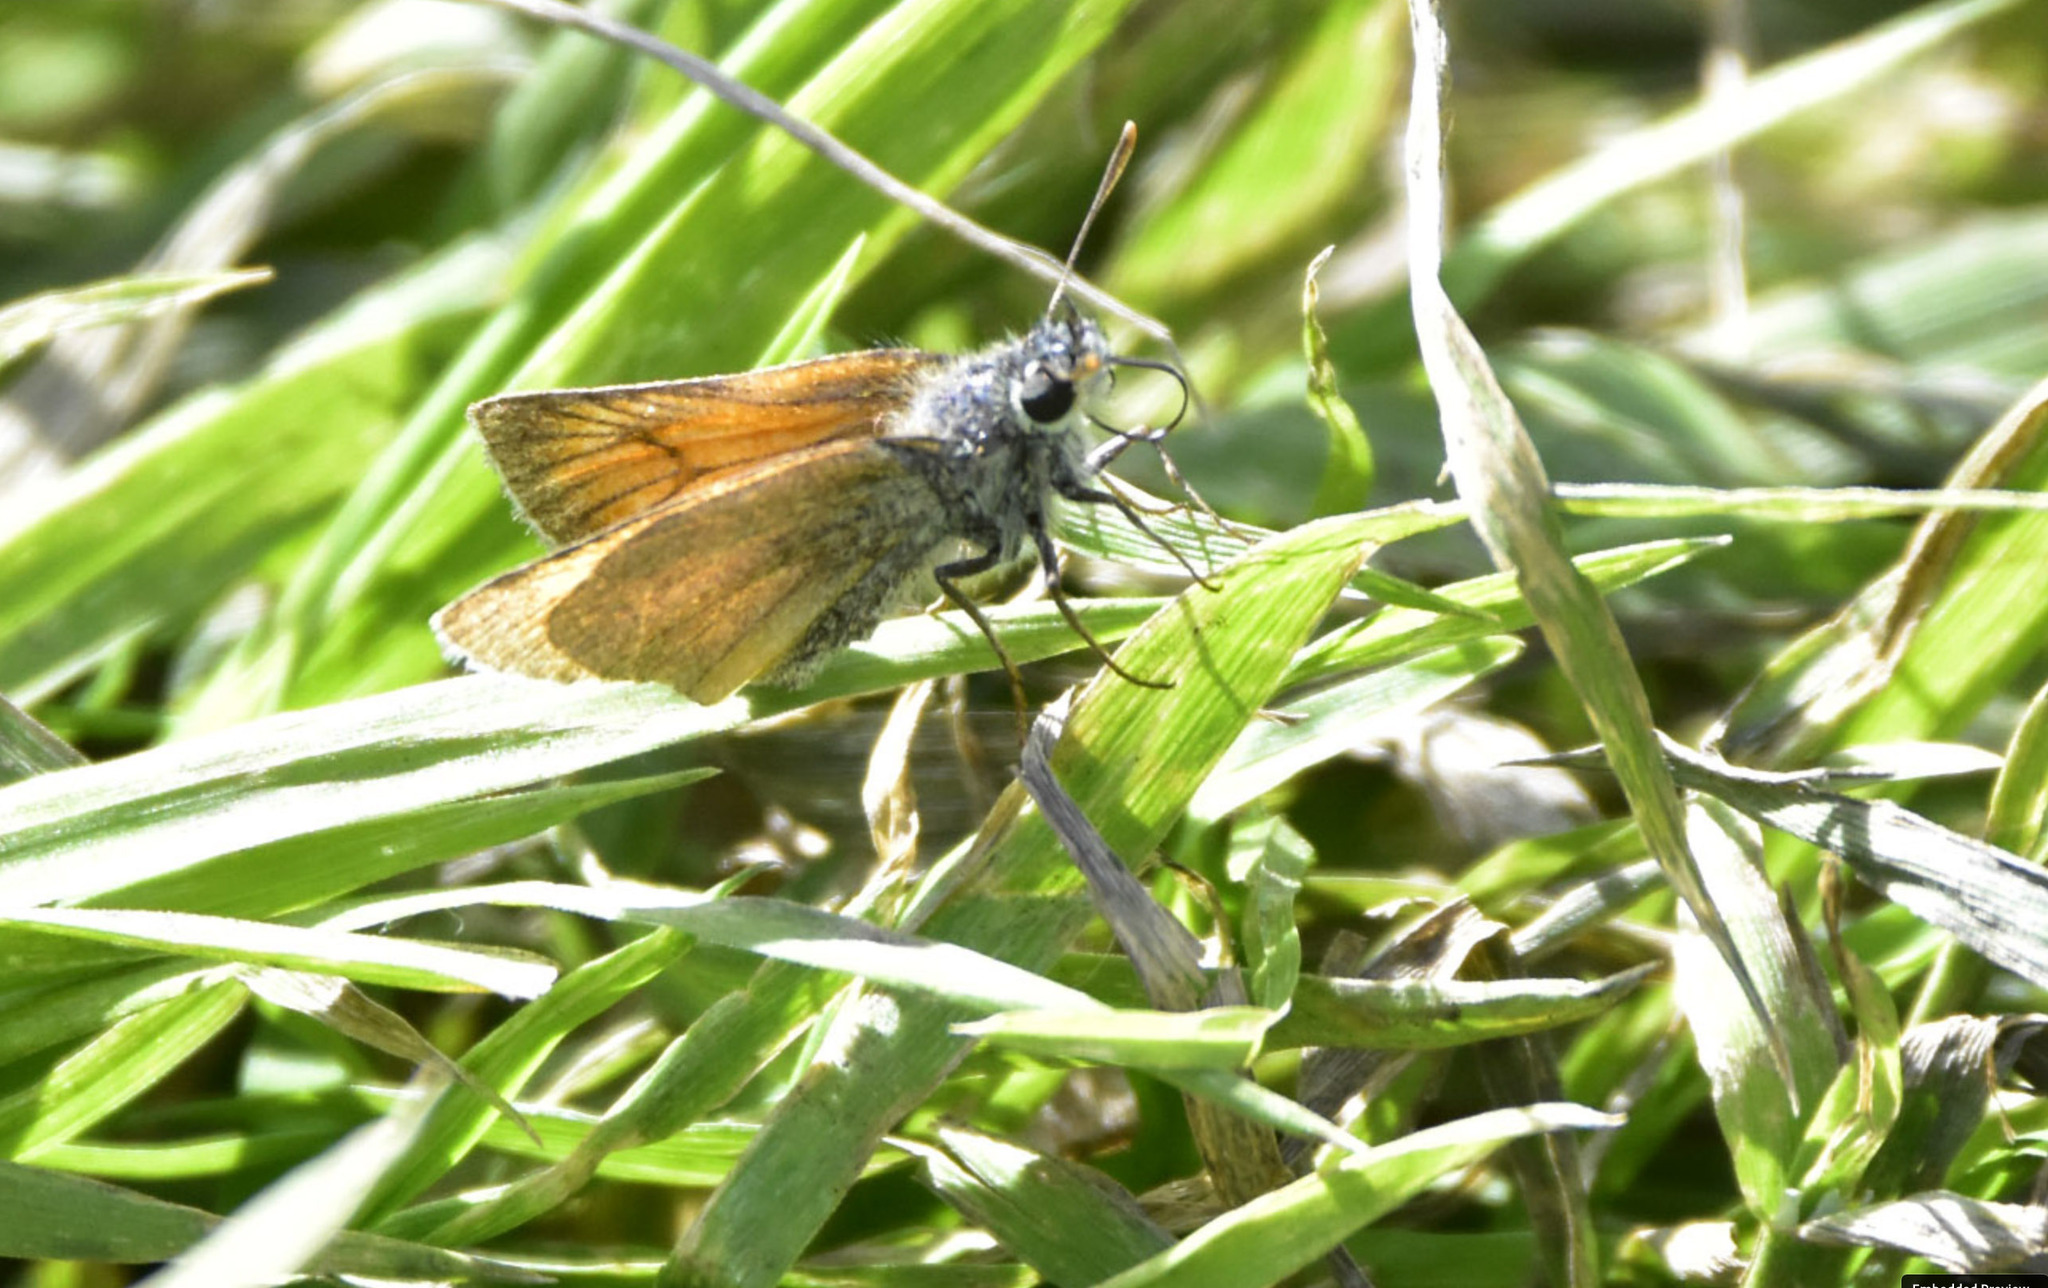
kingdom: Animalia
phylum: Arthropoda
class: Insecta
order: Lepidoptera
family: Hesperiidae
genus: Thymelicus
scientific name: Thymelicus sylvestris
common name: Small skipper
